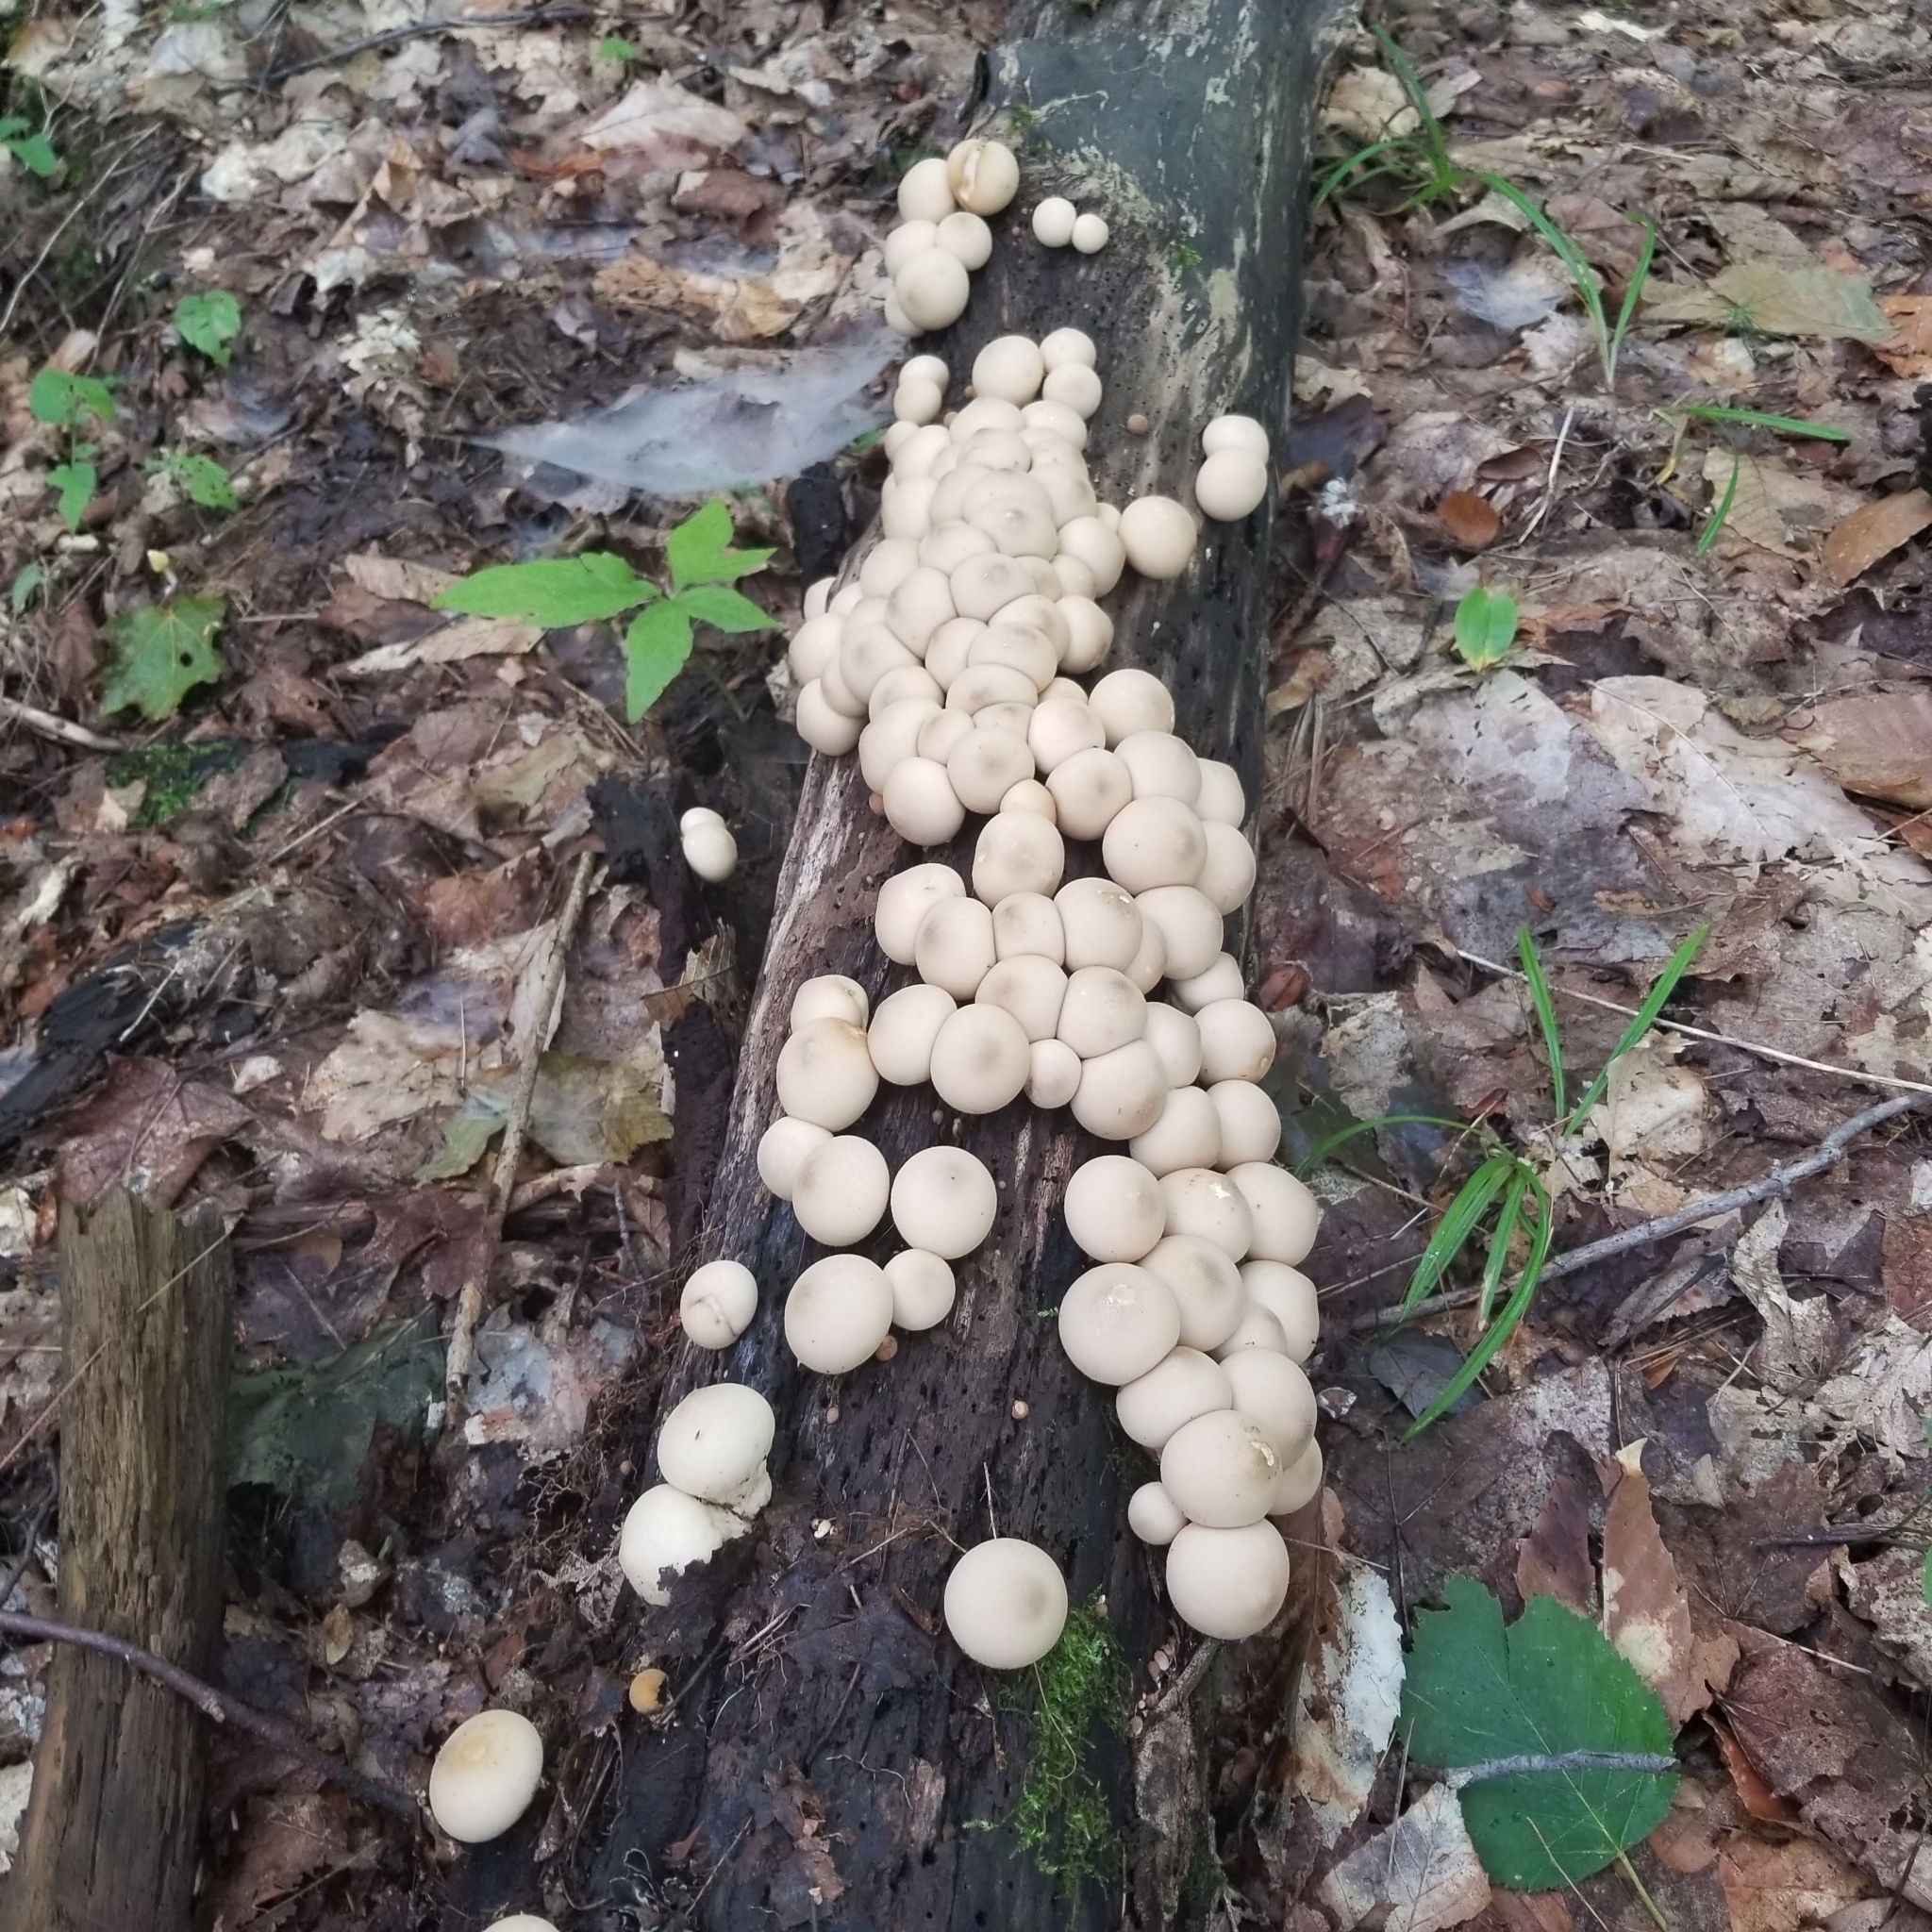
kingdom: Fungi
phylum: Basidiomycota
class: Agaricomycetes
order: Agaricales
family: Lycoperdaceae
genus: Apioperdon
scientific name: Apioperdon pyriforme
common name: Pear-shaped puffball
